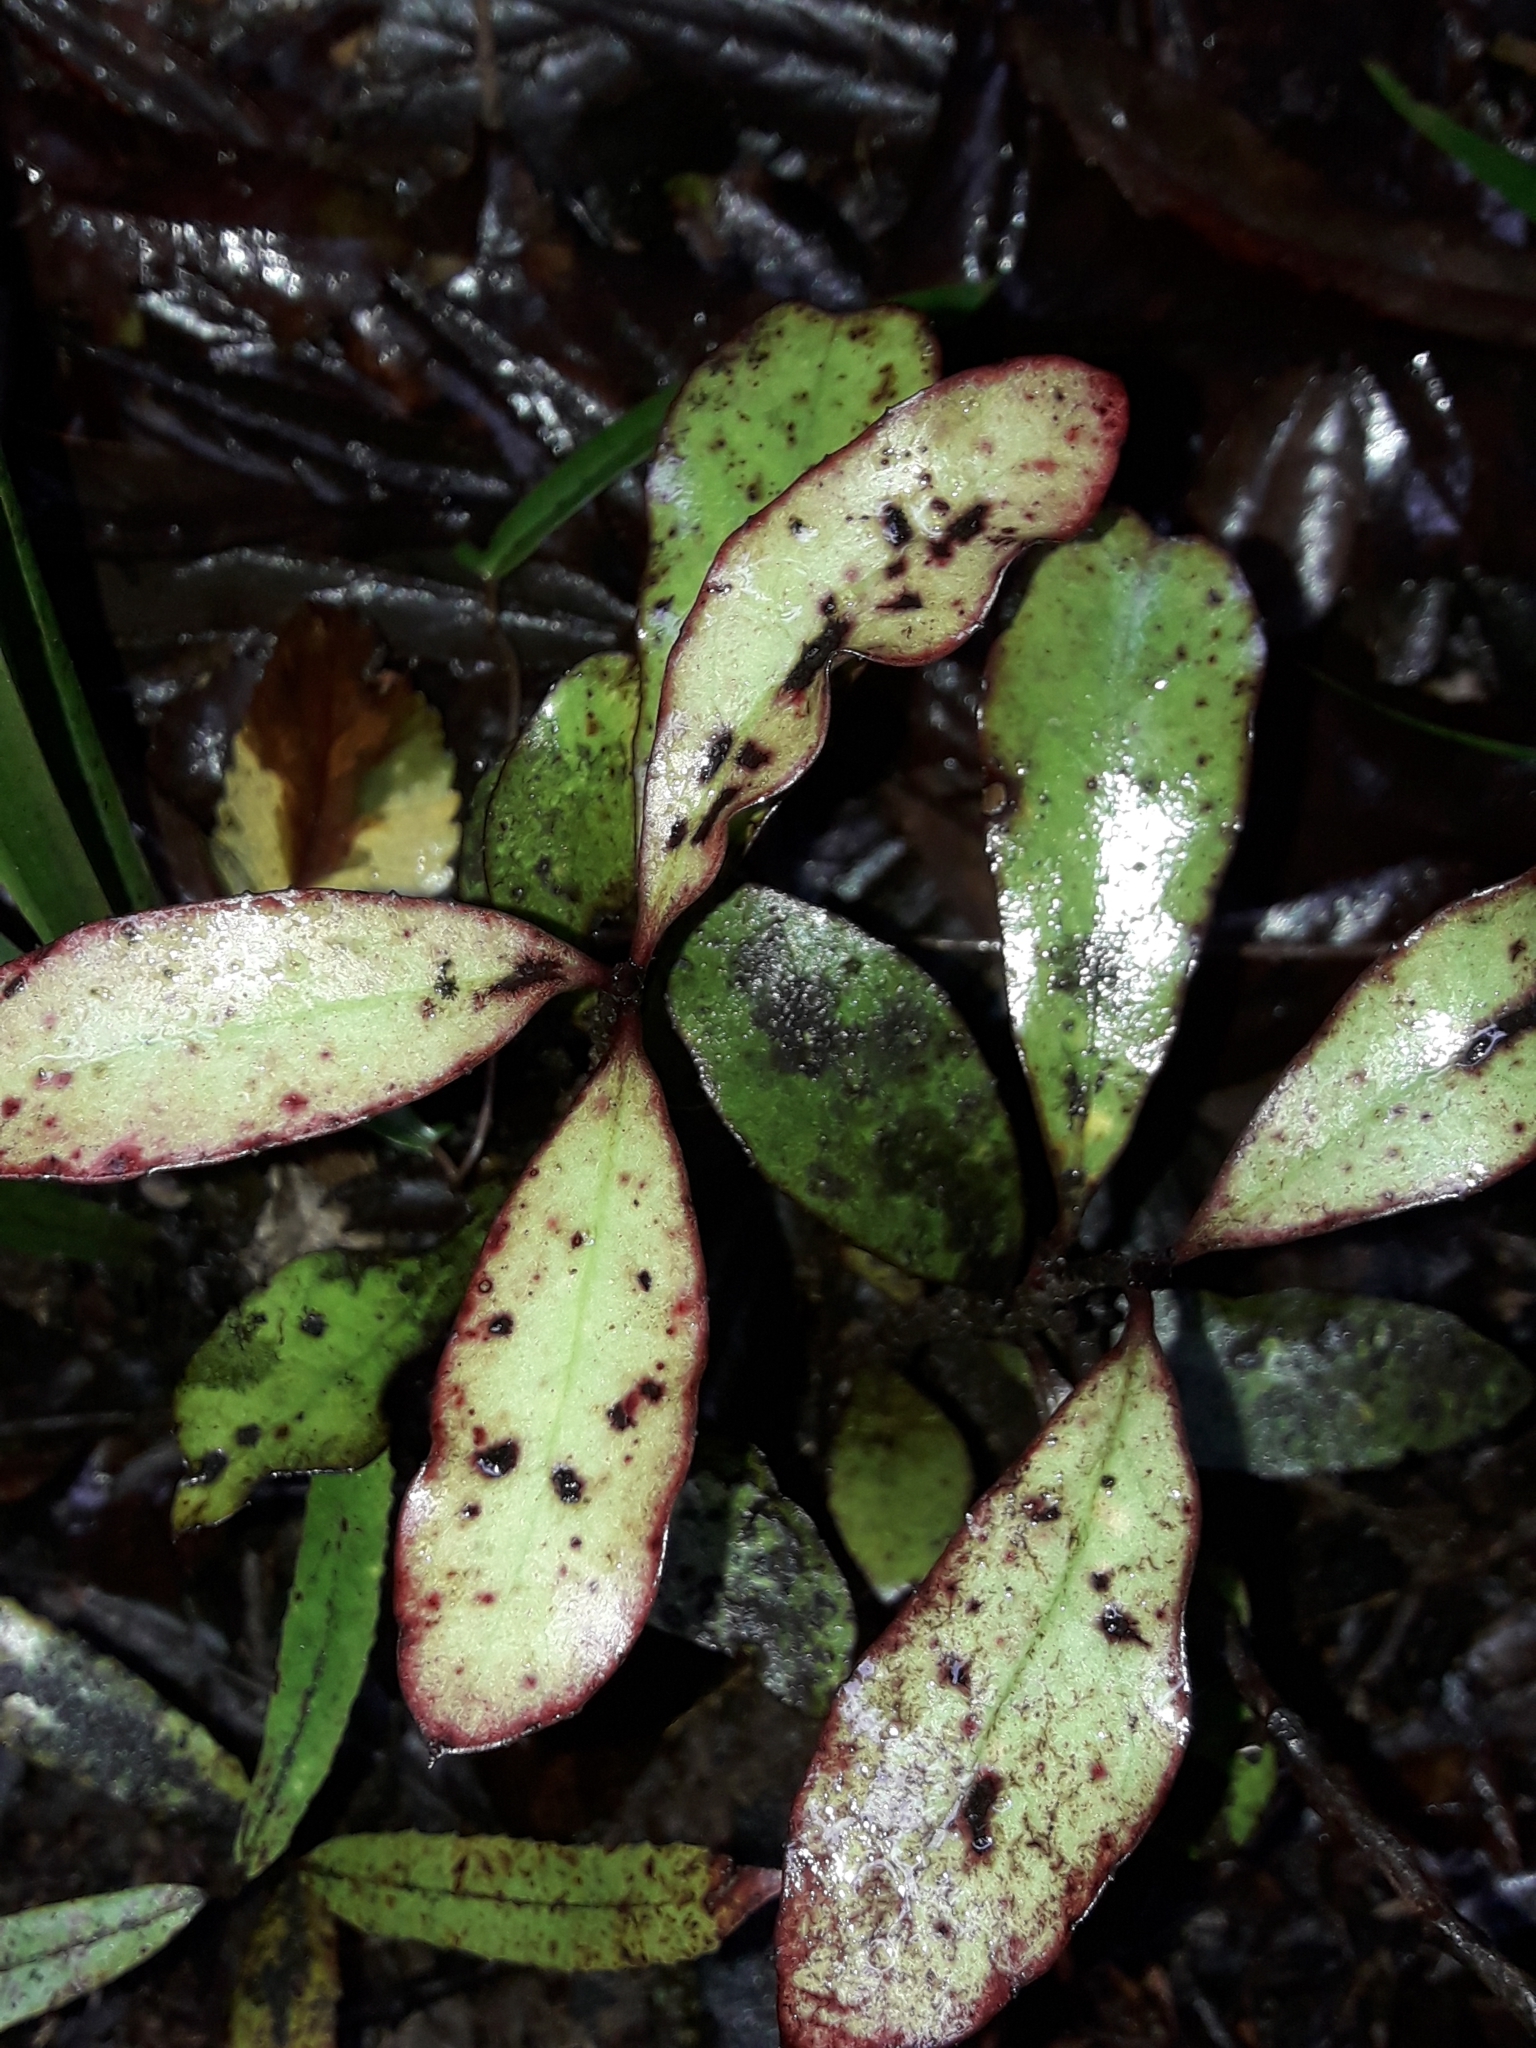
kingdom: Plantae
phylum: Tracheophyta
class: Magnoliopsida
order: Asterales
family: Alseuosmiaceae
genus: Alseuosmia
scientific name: Alseuosmia pusilla
